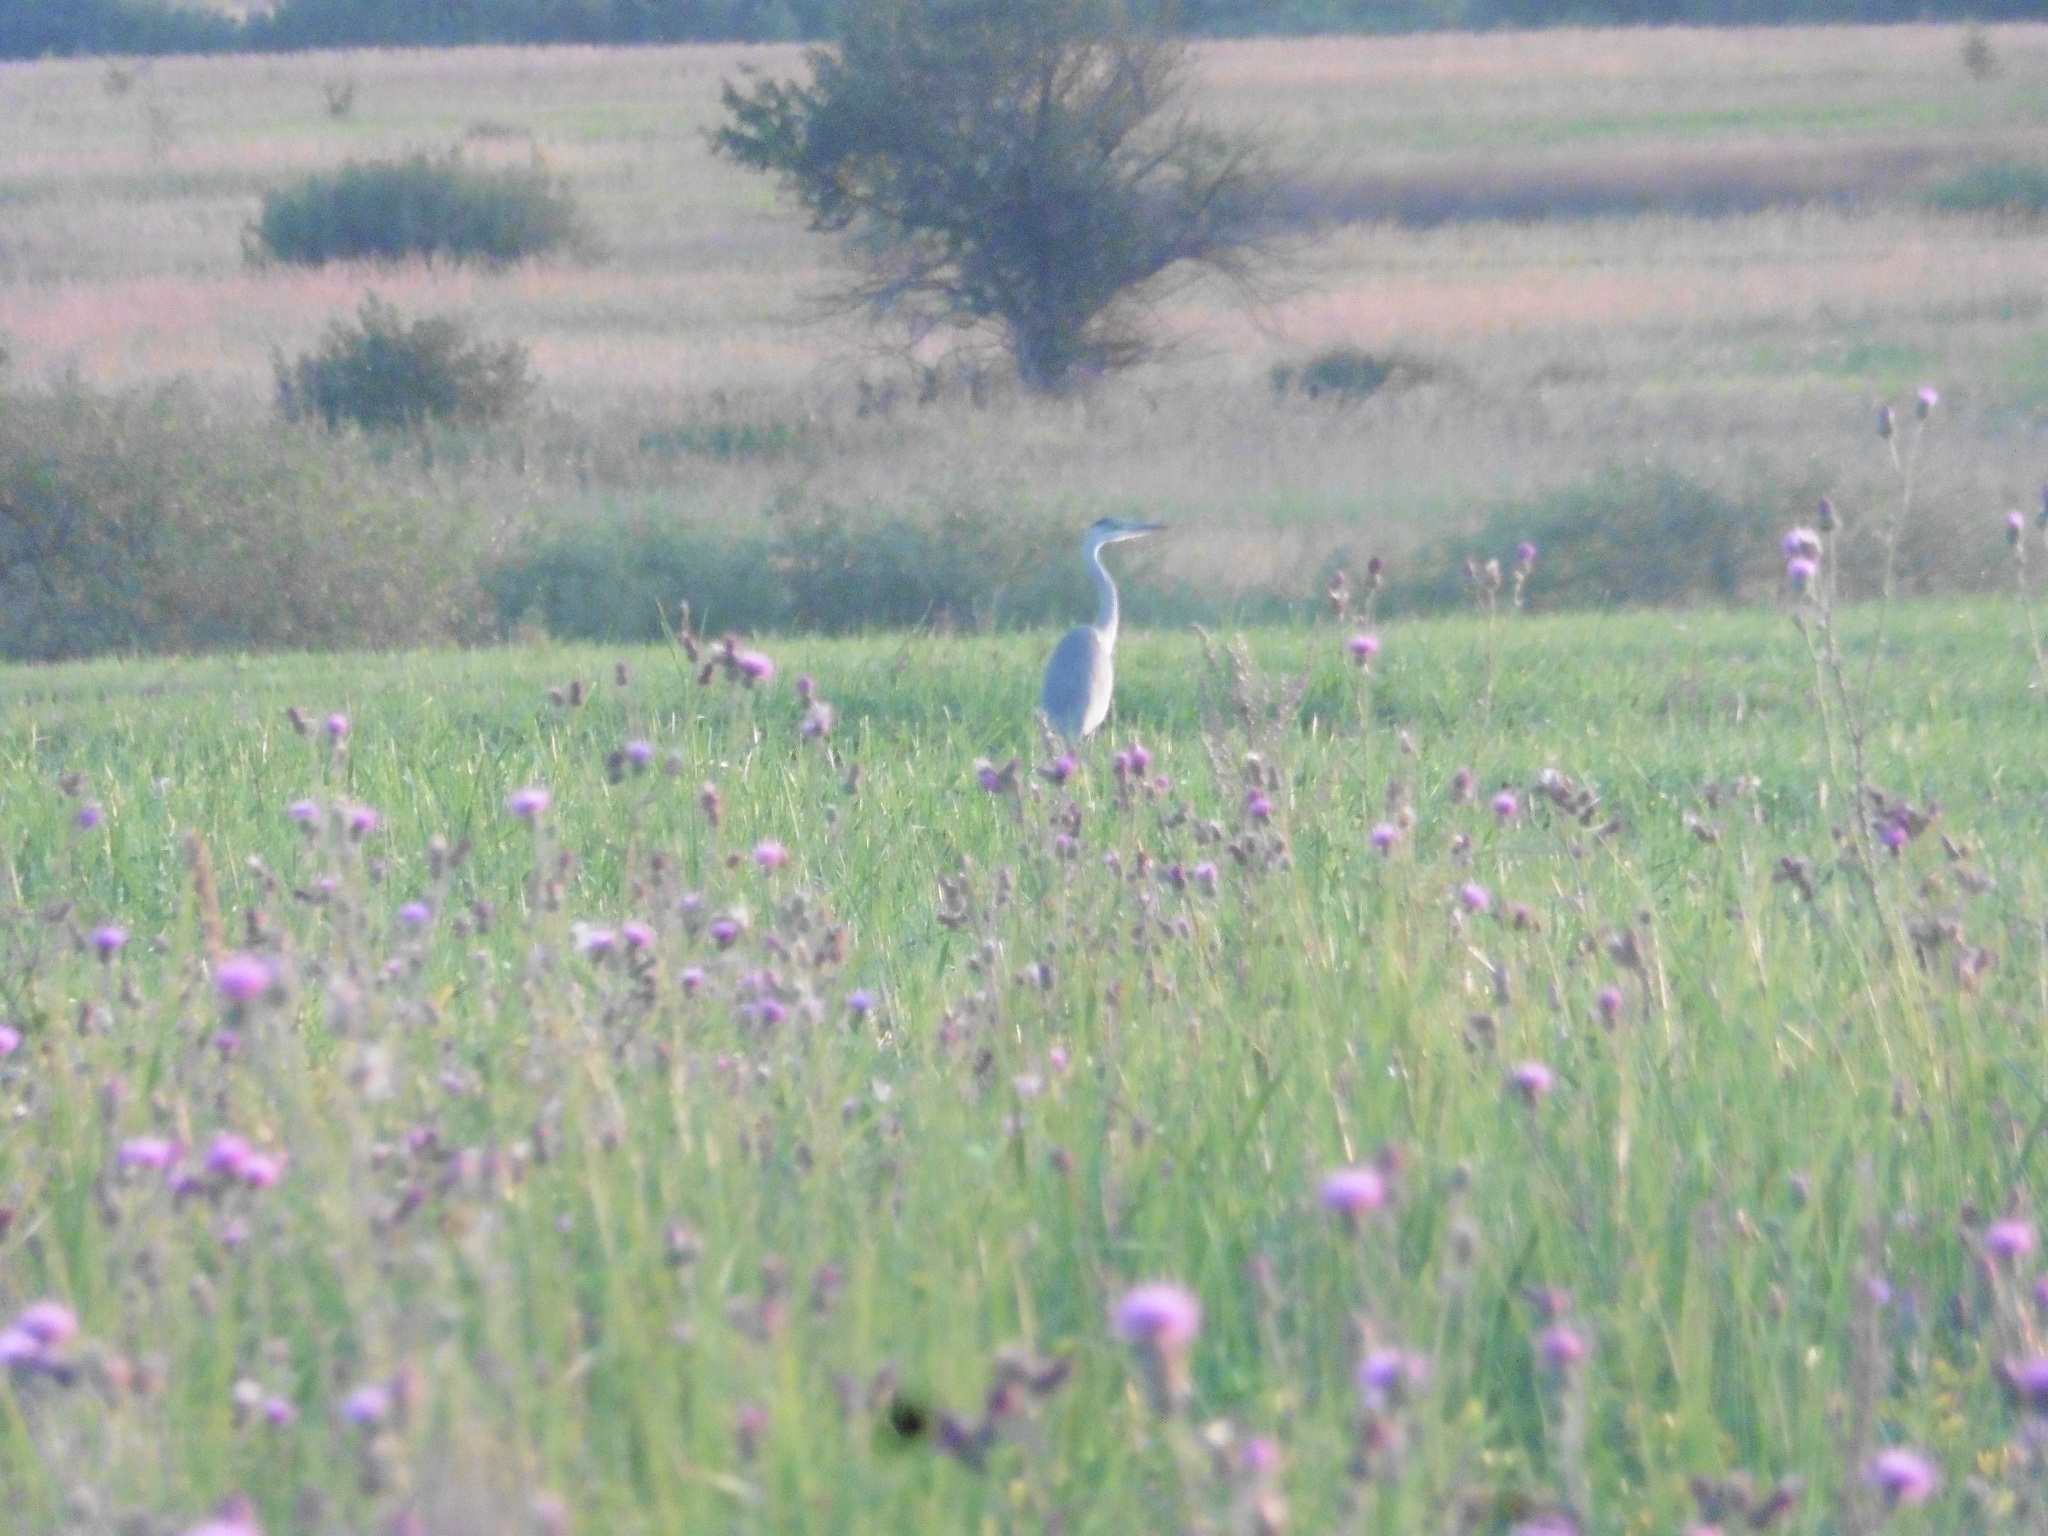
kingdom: Animalia
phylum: Chordata
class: Aves
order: Pelecaniformes
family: Ardeidae
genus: Ardea
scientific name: Ardea cinerea
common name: Grey heron
